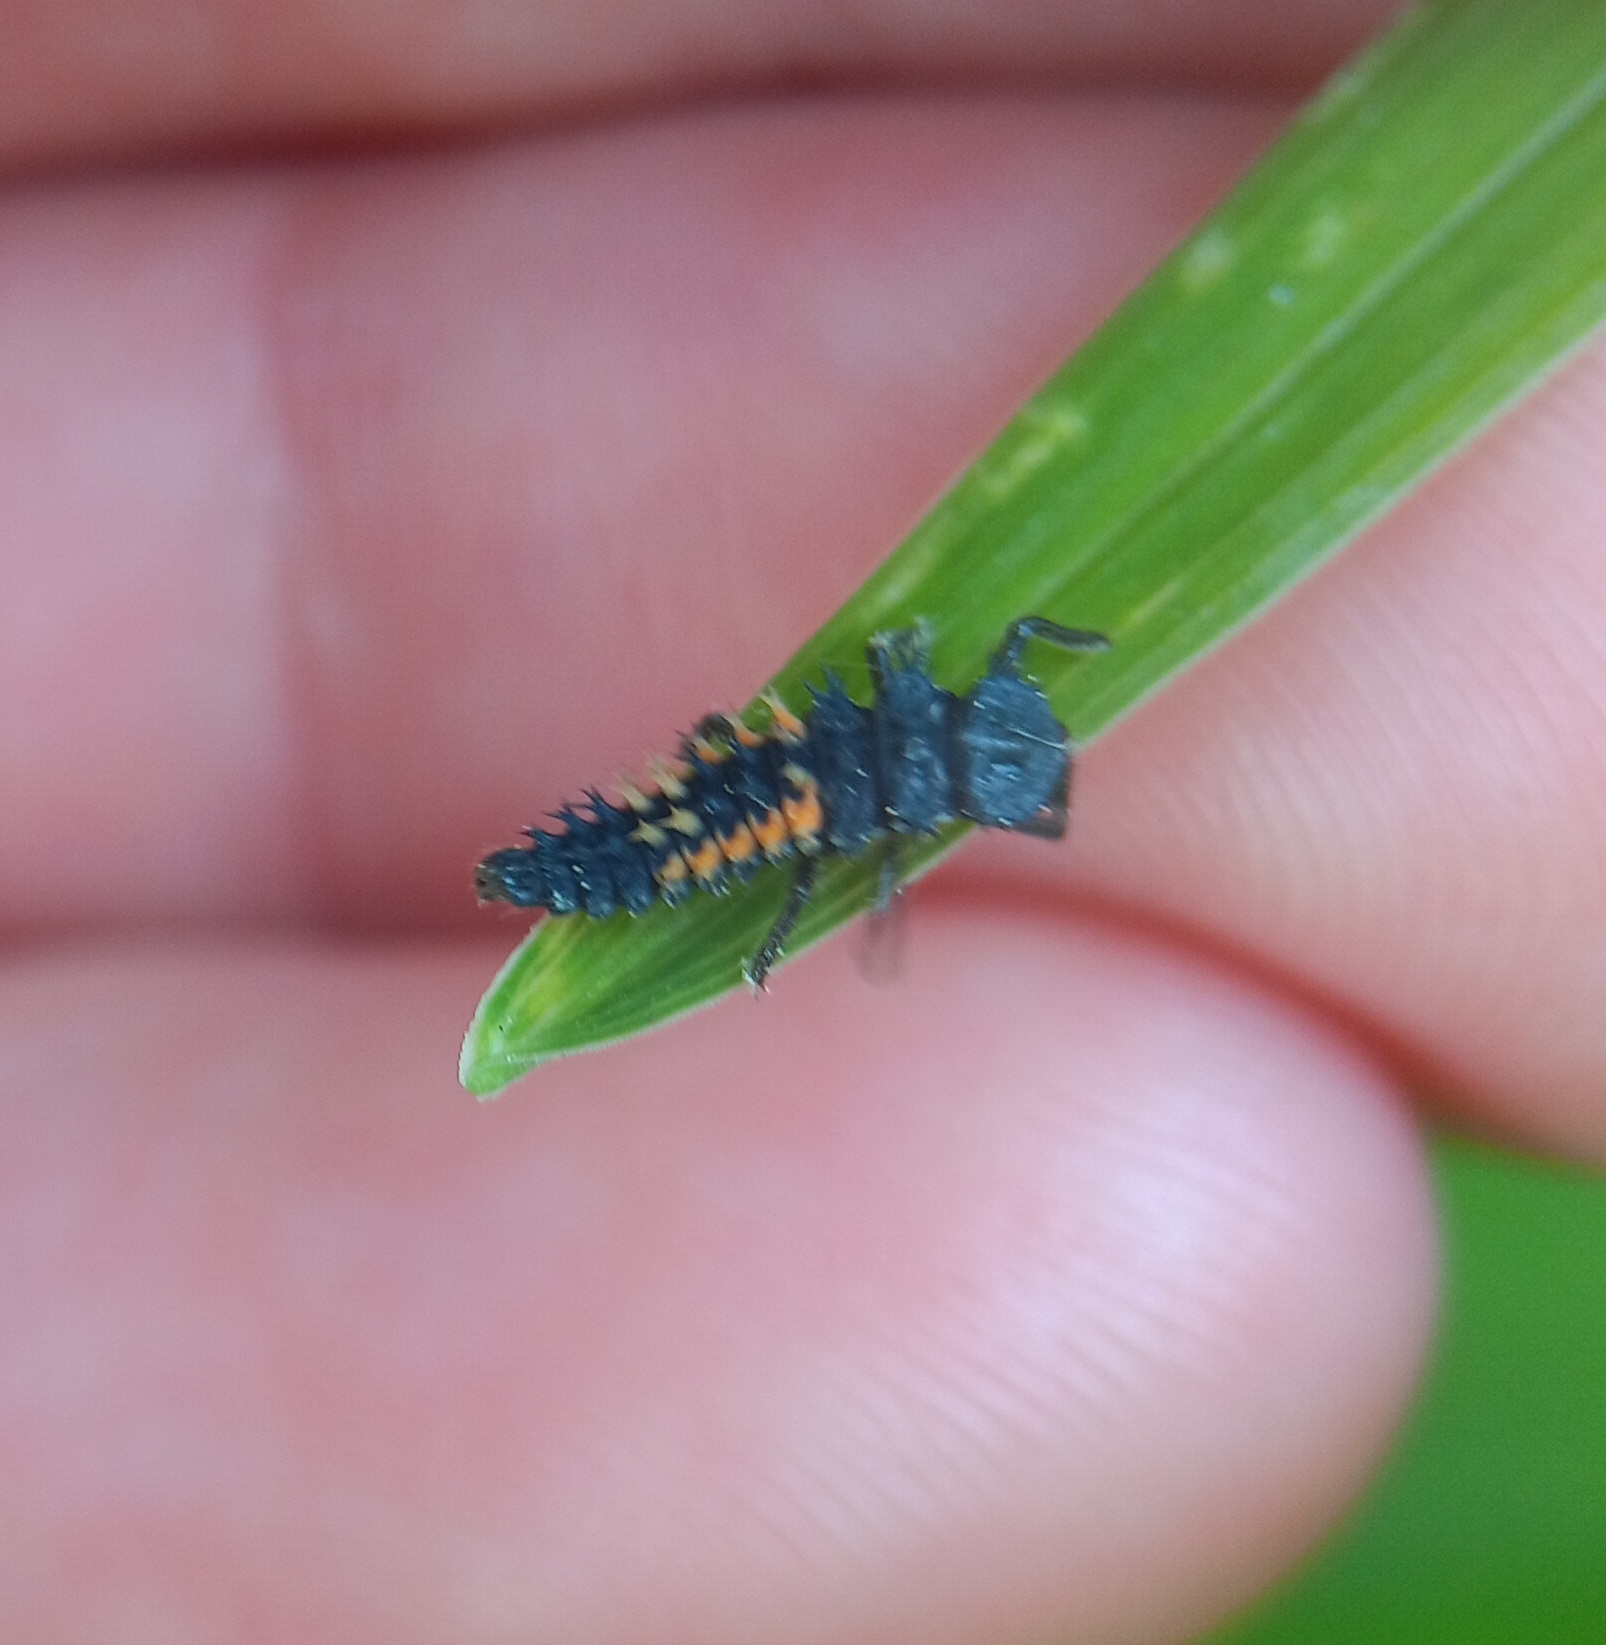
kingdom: Animalia
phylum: Arthropoda
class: Insecta
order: Coleoptera
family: Coccinellidae
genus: Harmonia
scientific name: Harmonia axyridis
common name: Harlequin ladybird
